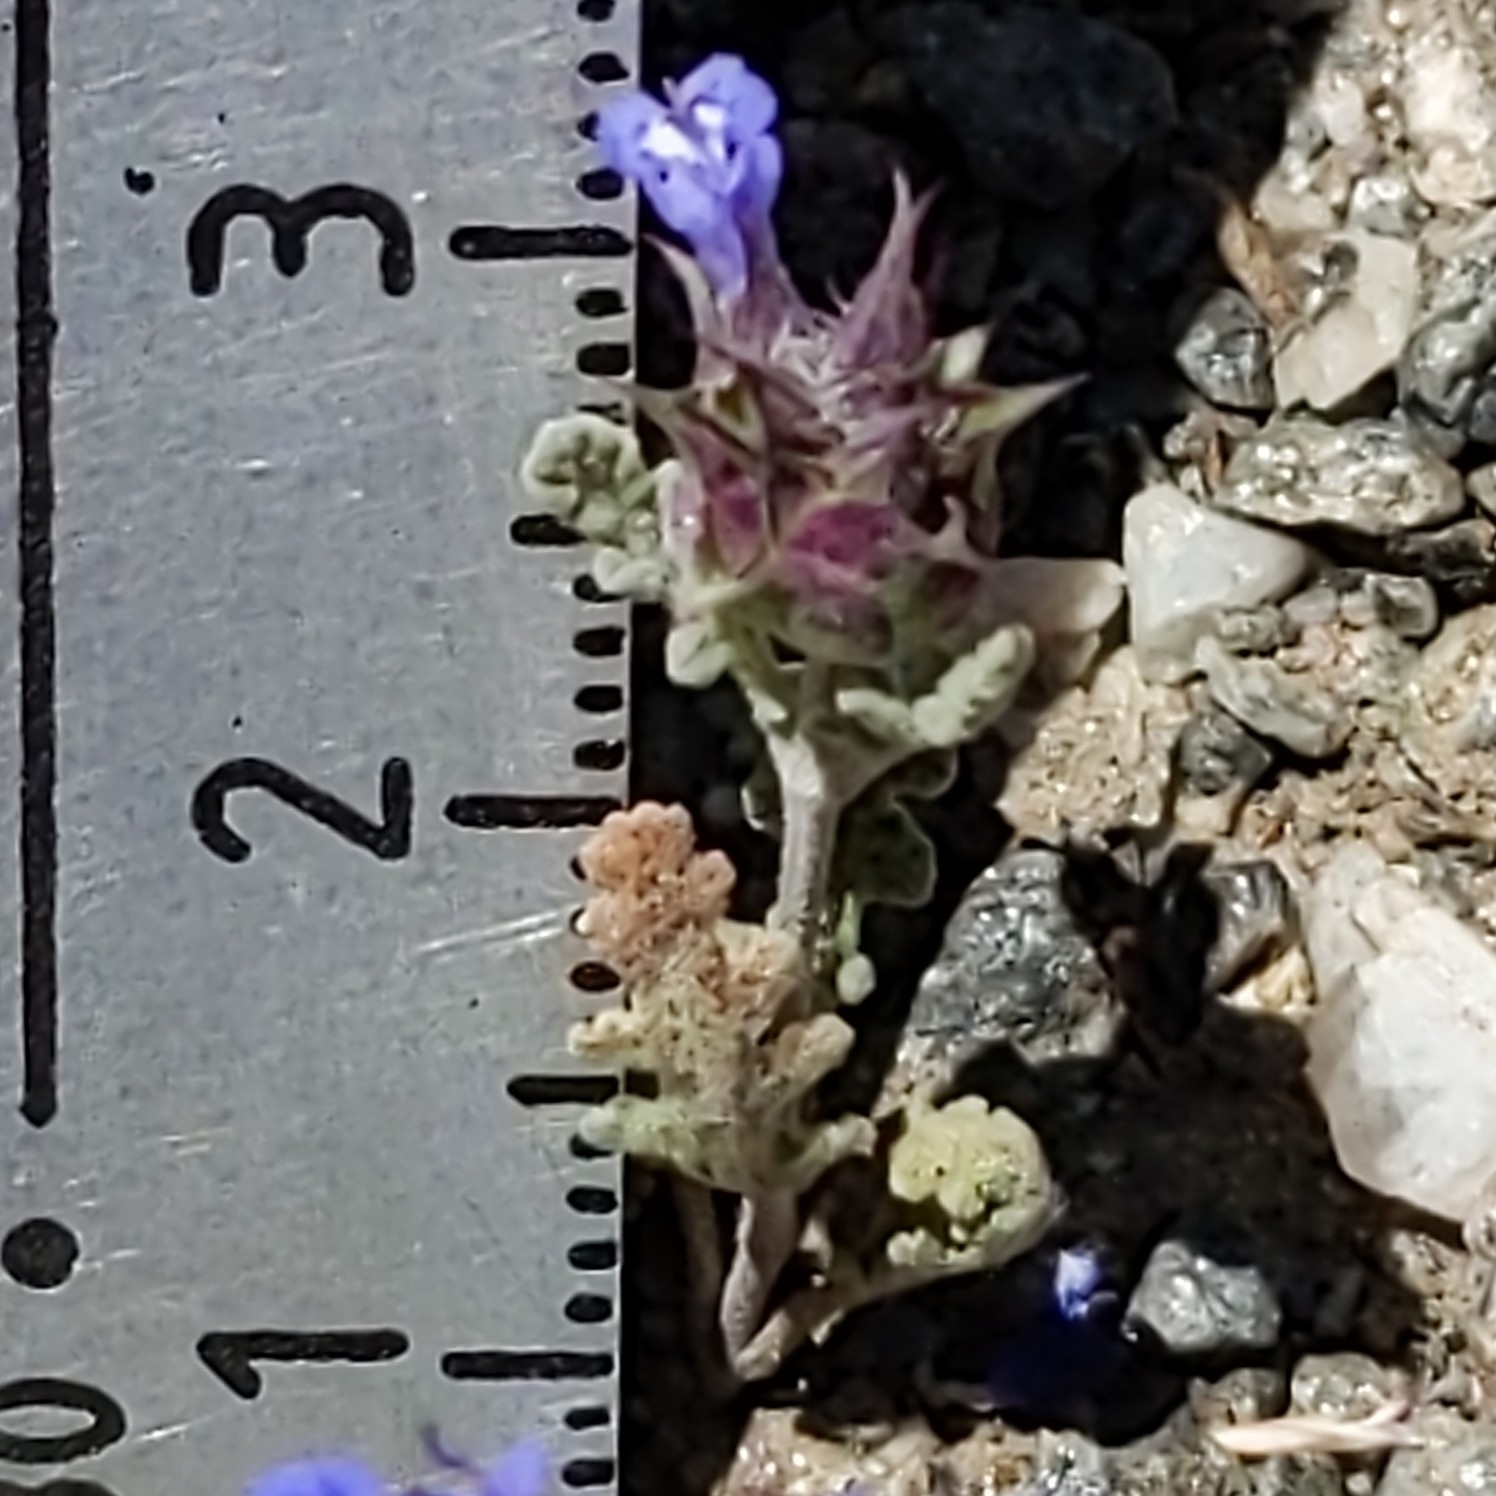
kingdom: Plantae
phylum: Tracheophyta
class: Magnoliopsida
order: Lamiales
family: Lamiaceae
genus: Salvia
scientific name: Salvia columbariae
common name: Chia
